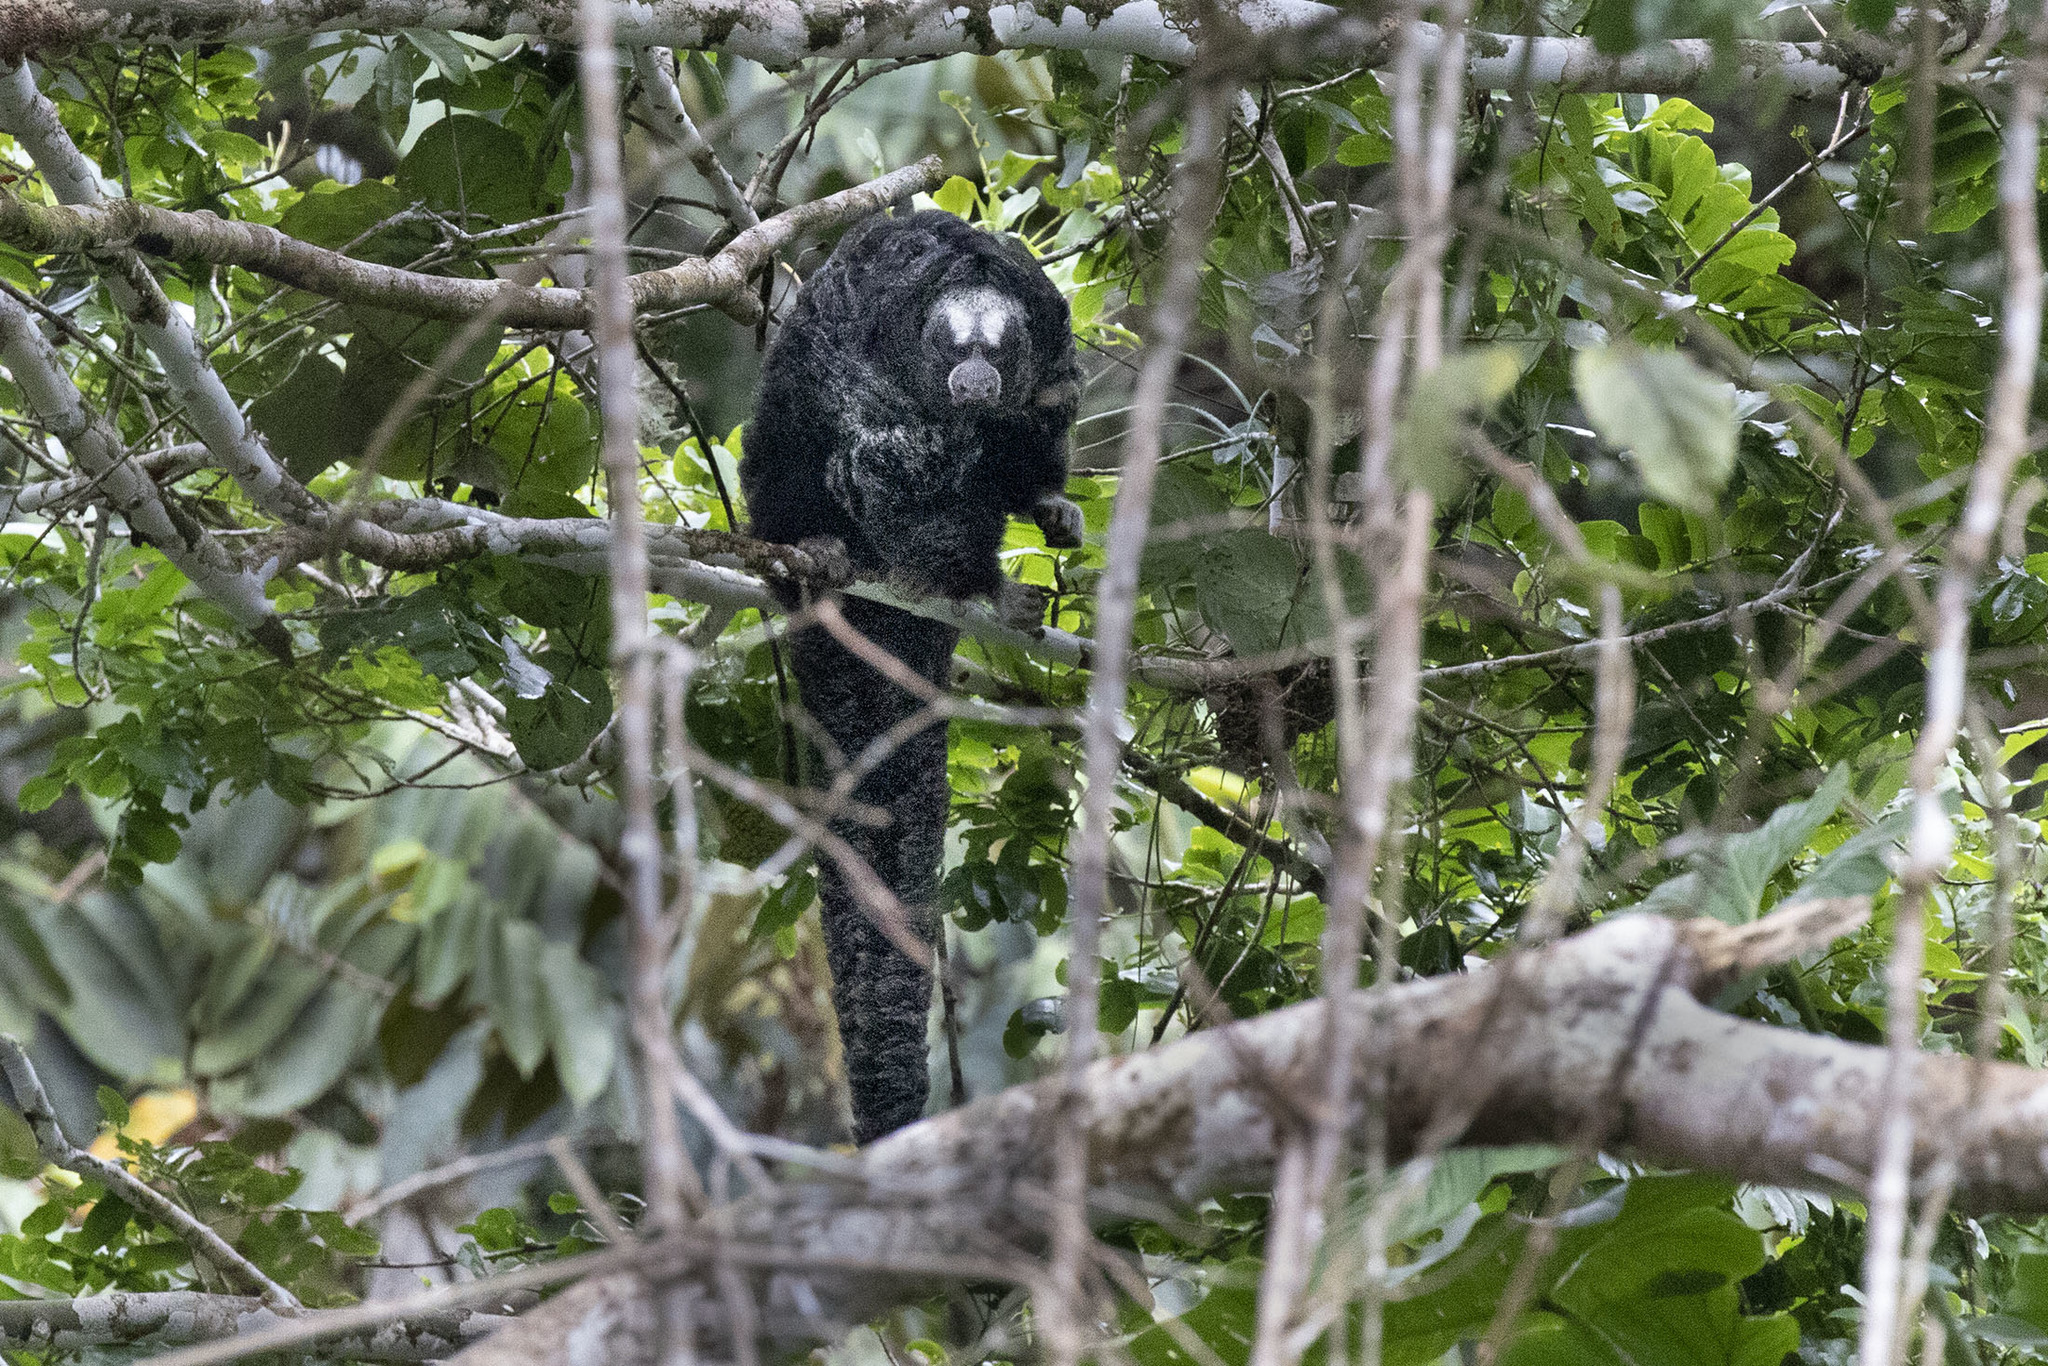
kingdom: Animalia
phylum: Chordata
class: Mammalia
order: Primates
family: Pitheciidae
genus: Pithecia
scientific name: Pithecia napensis
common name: Napo saki
